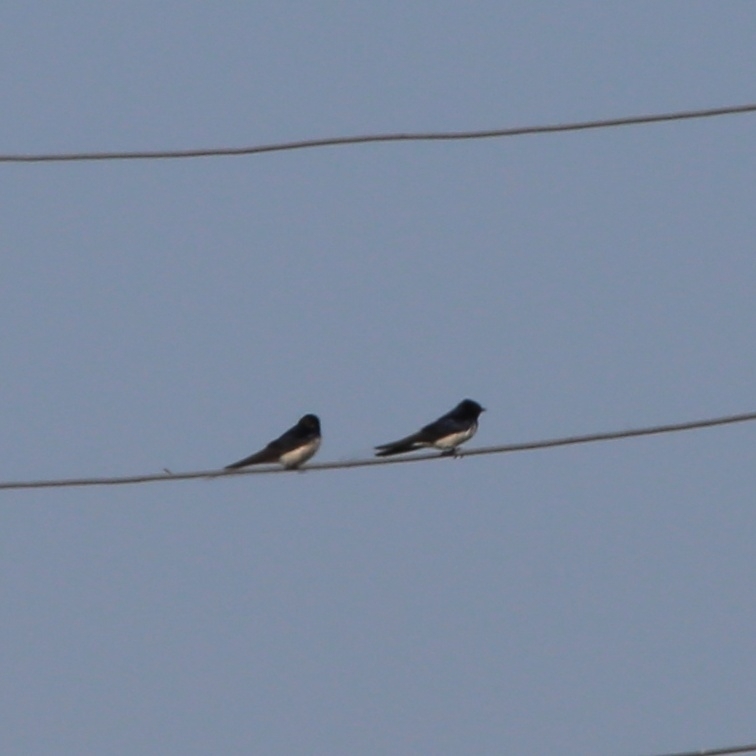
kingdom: Animalia
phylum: Chordata
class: Aves
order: Passeriformes
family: Hirundinidae
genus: Hirundo
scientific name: Hirundo rustica
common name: Barn swallow
